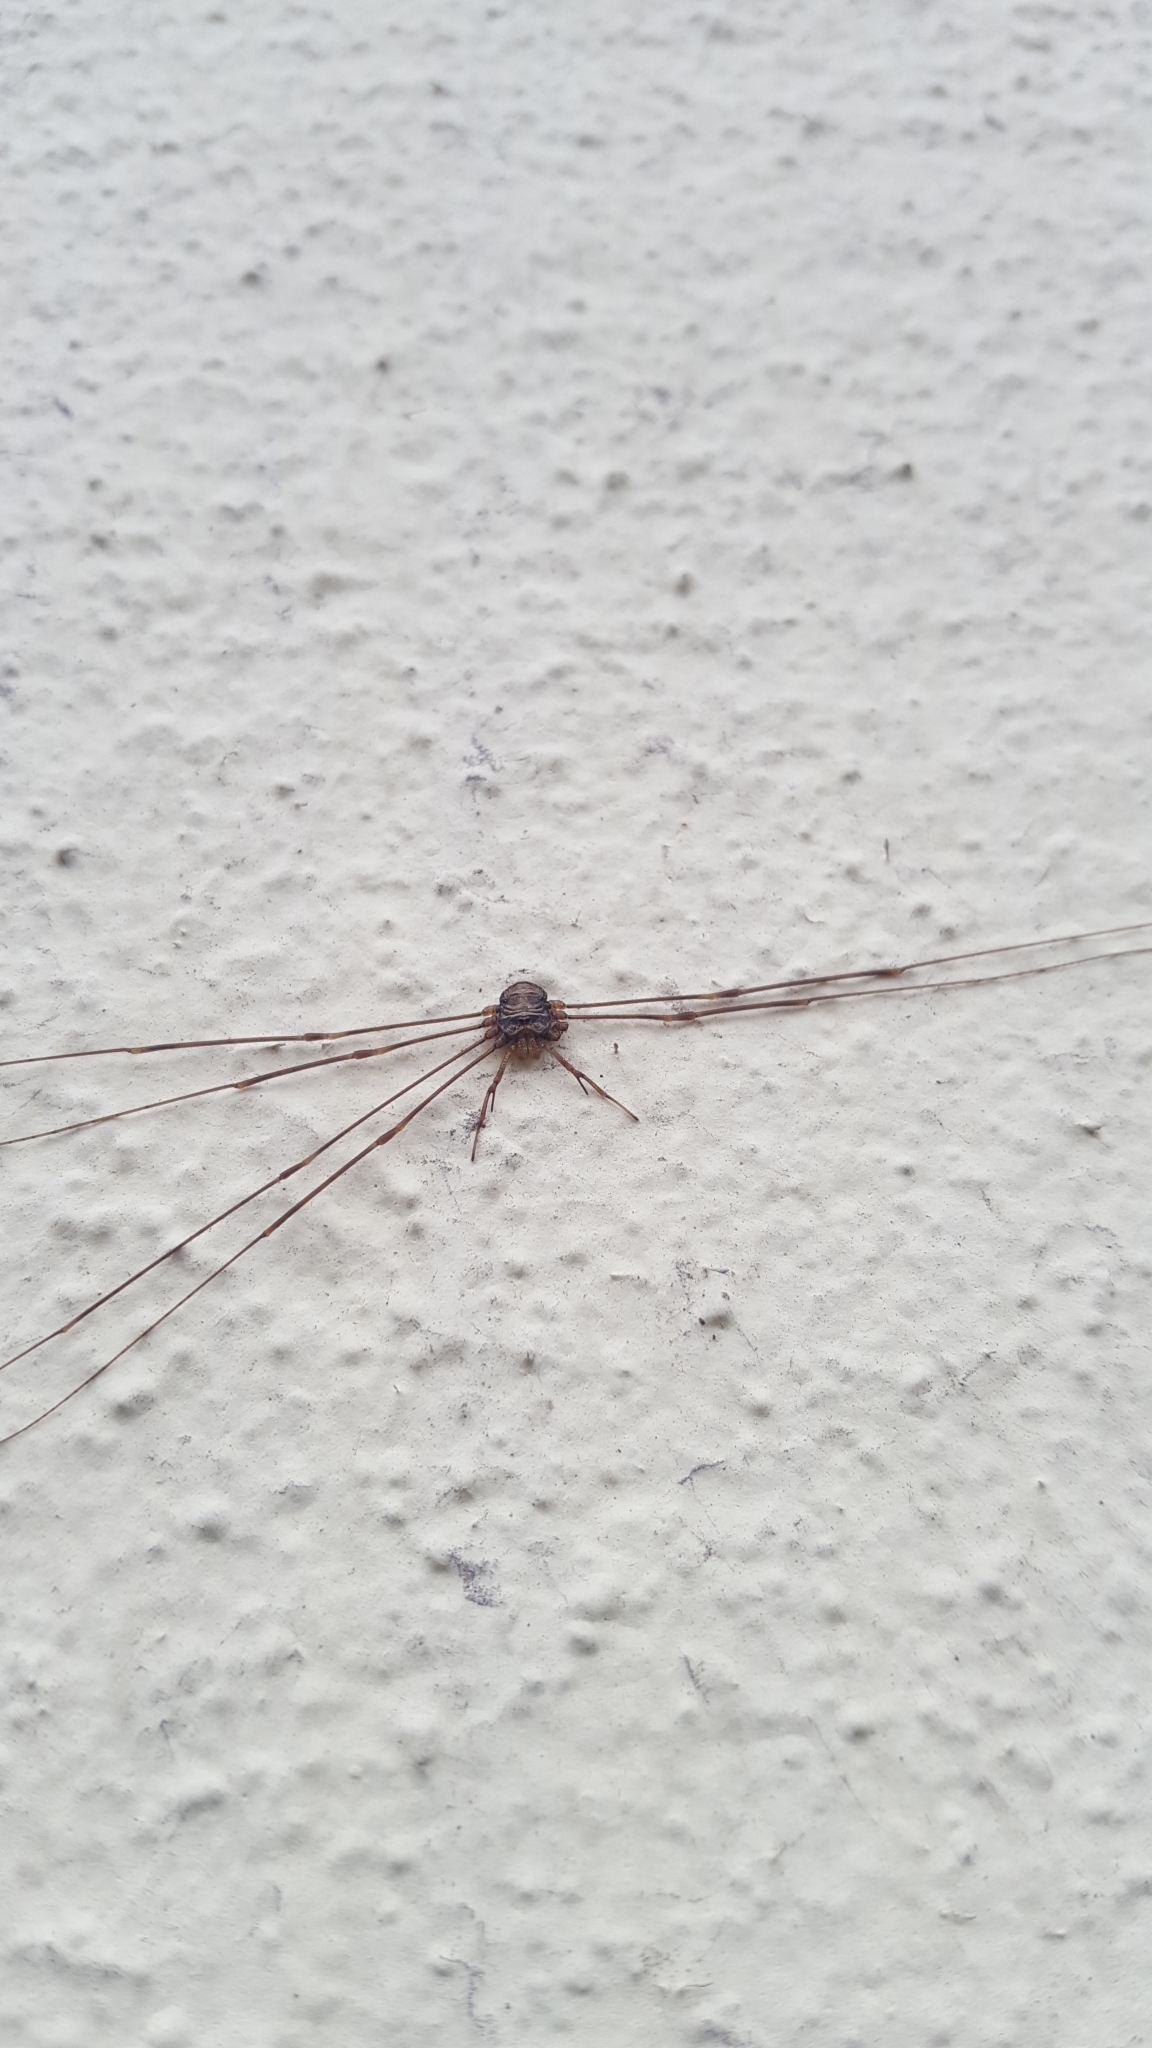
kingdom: Animalia
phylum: Arthropoda
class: Arachnida
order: Opiliones
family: Phalangiidae
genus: Dicranopalpus
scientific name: Dicranopalpus ramosus
